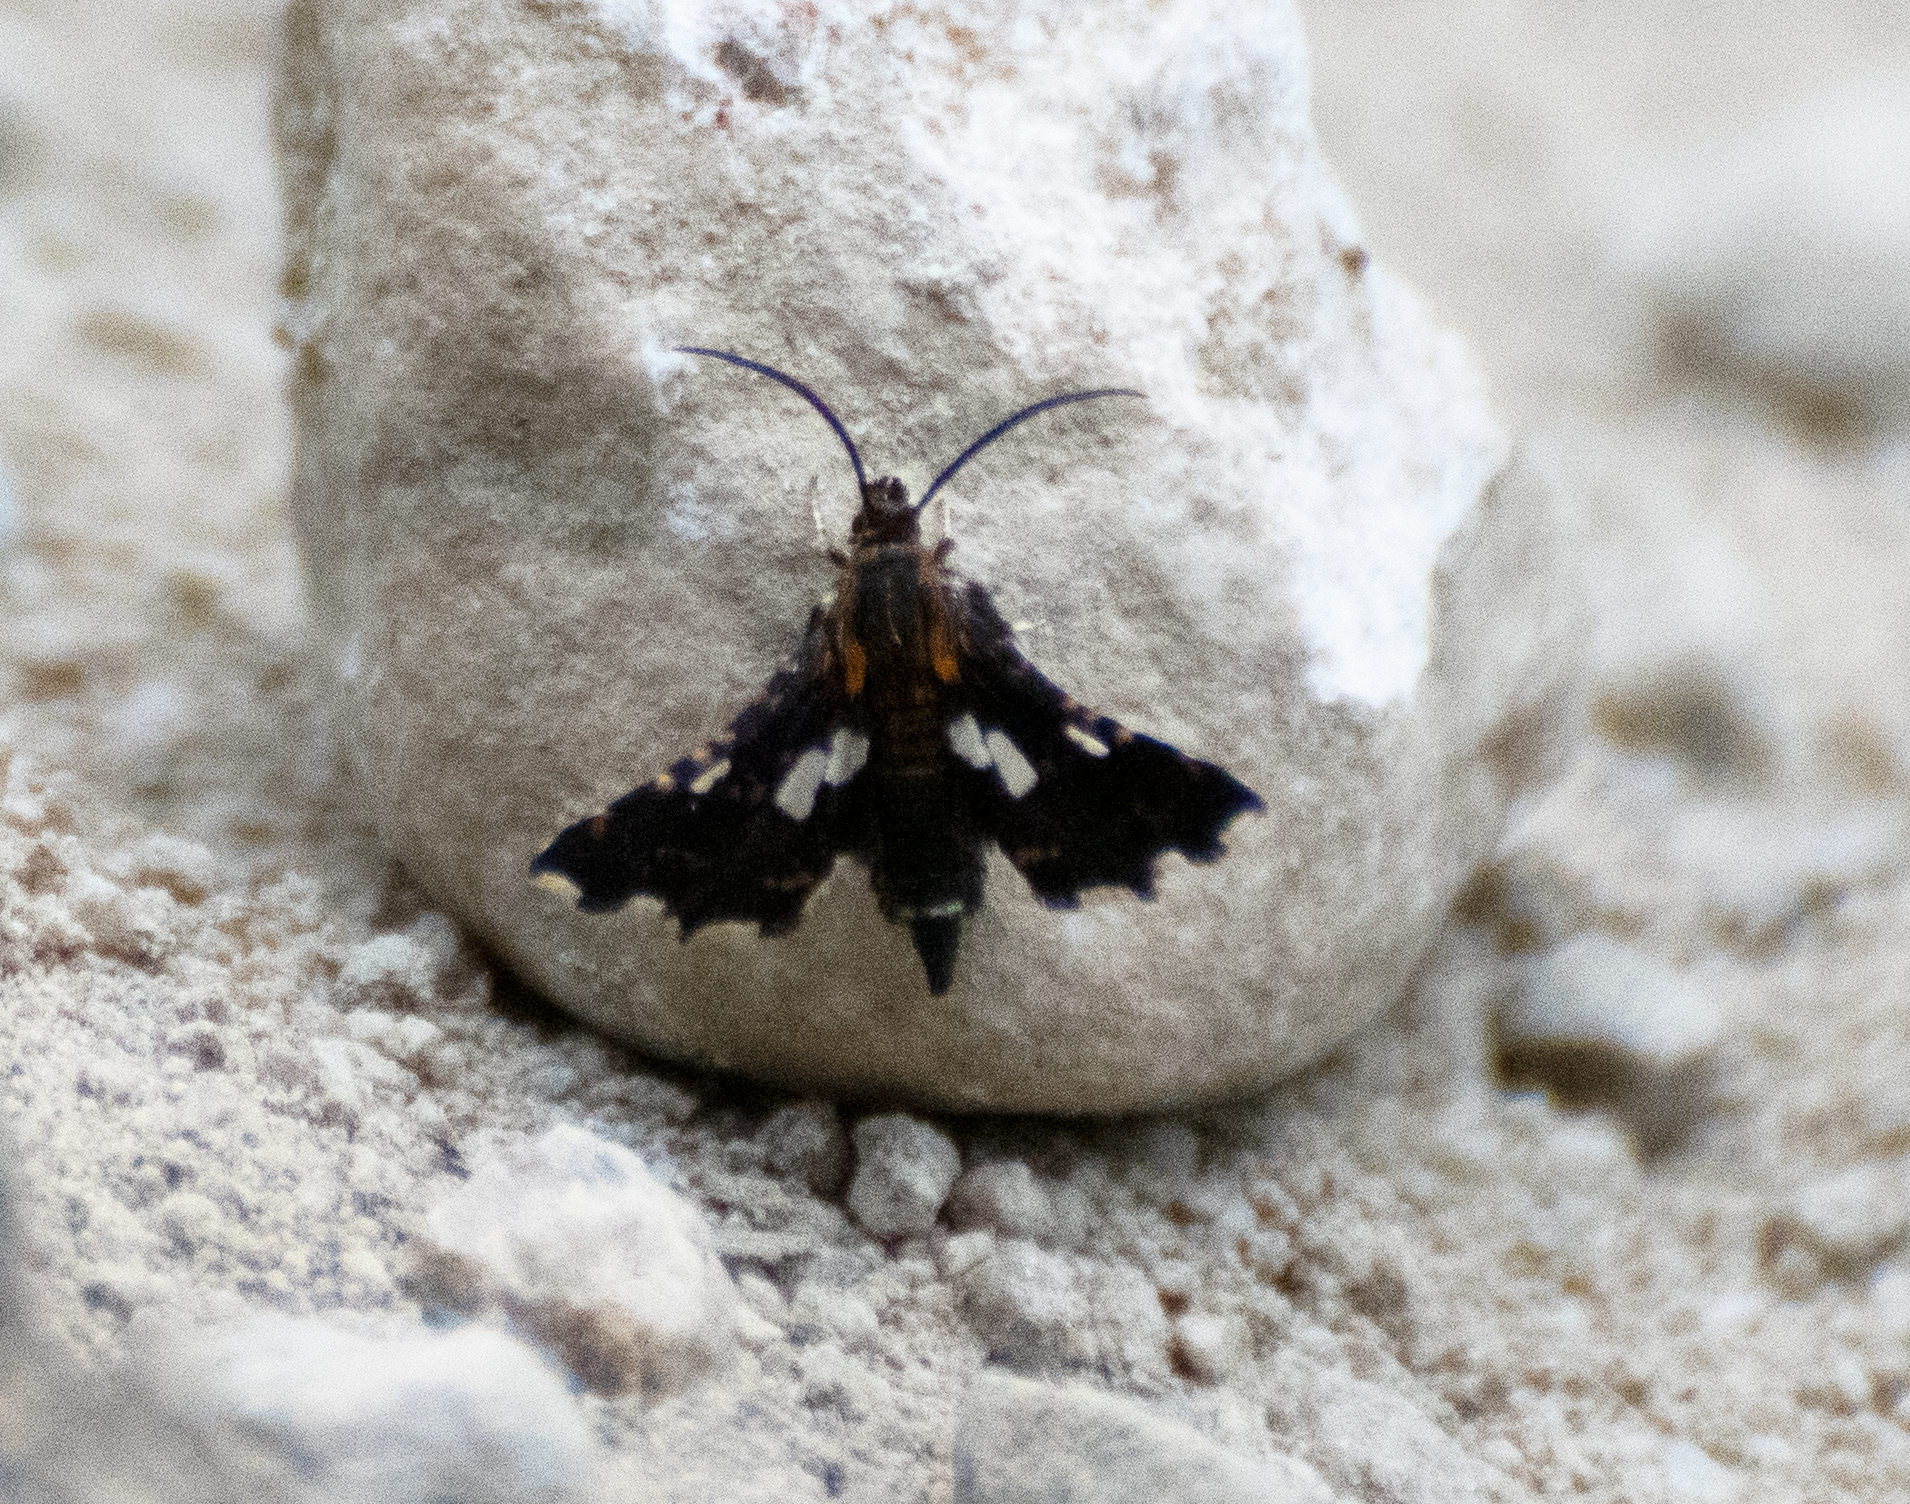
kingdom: Animalia
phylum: Arthropoda
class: Insecta
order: Lepidoptera
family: Thyrididae
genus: Thyris
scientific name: Thyris maculata
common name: Spotted thyris moth
